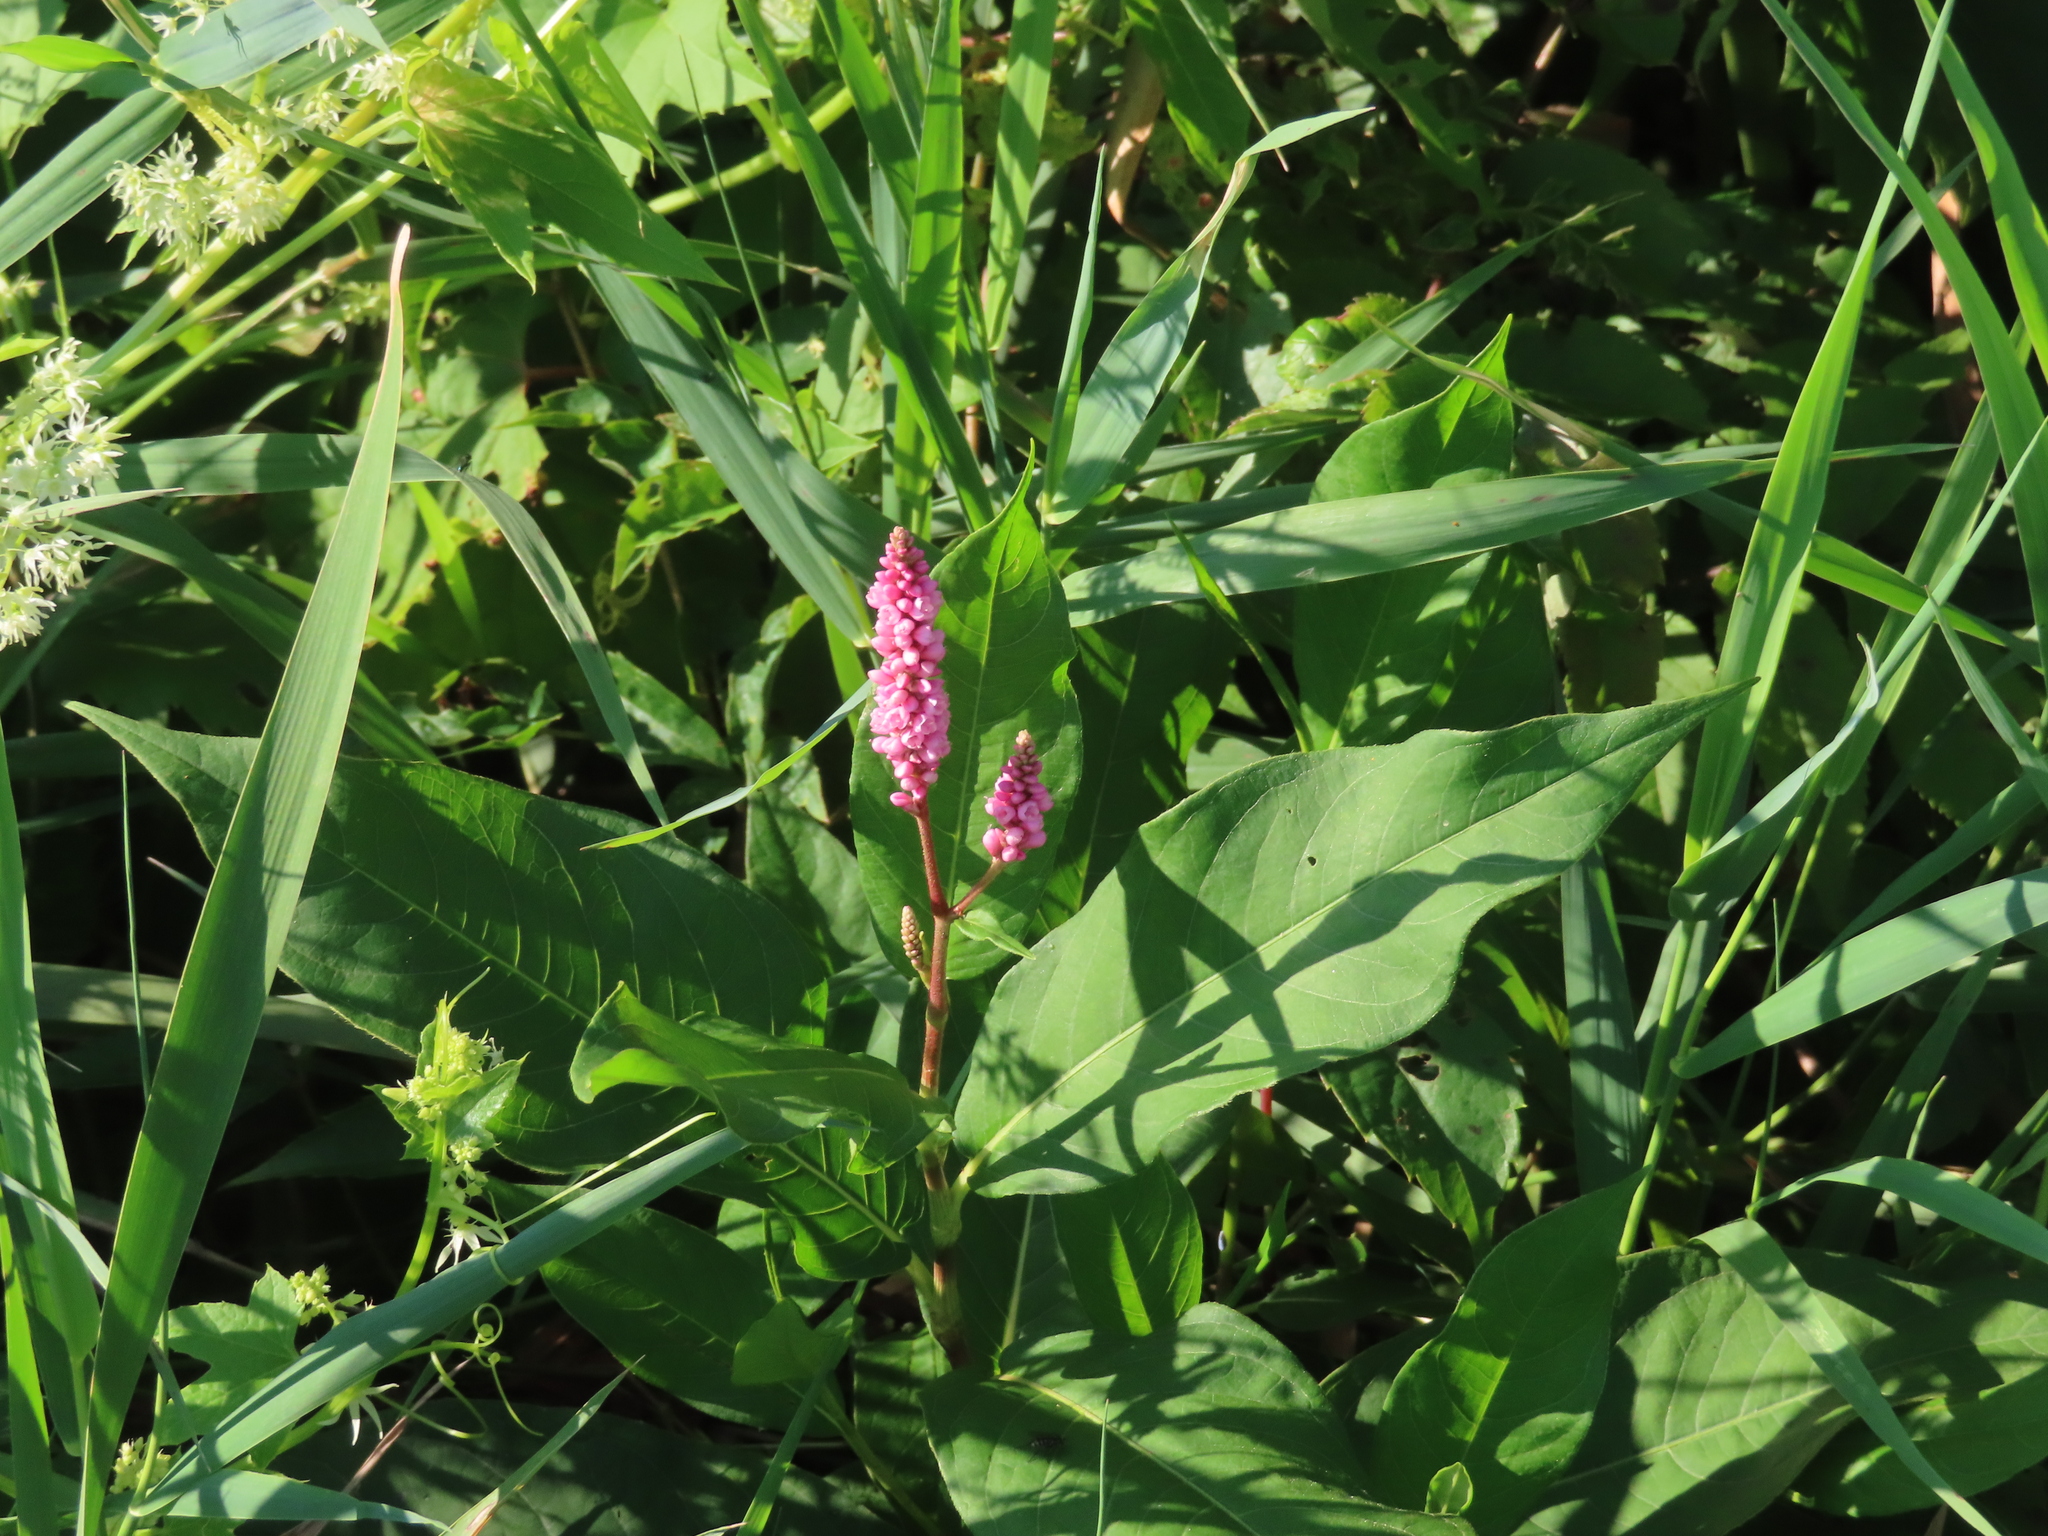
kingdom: Plantae
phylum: Tracheophyta
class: Magnoliopsida
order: Caryophyllales
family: Polygonaceae
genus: Persicaria
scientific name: Persicaria amphibia
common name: Amphibious bistort
